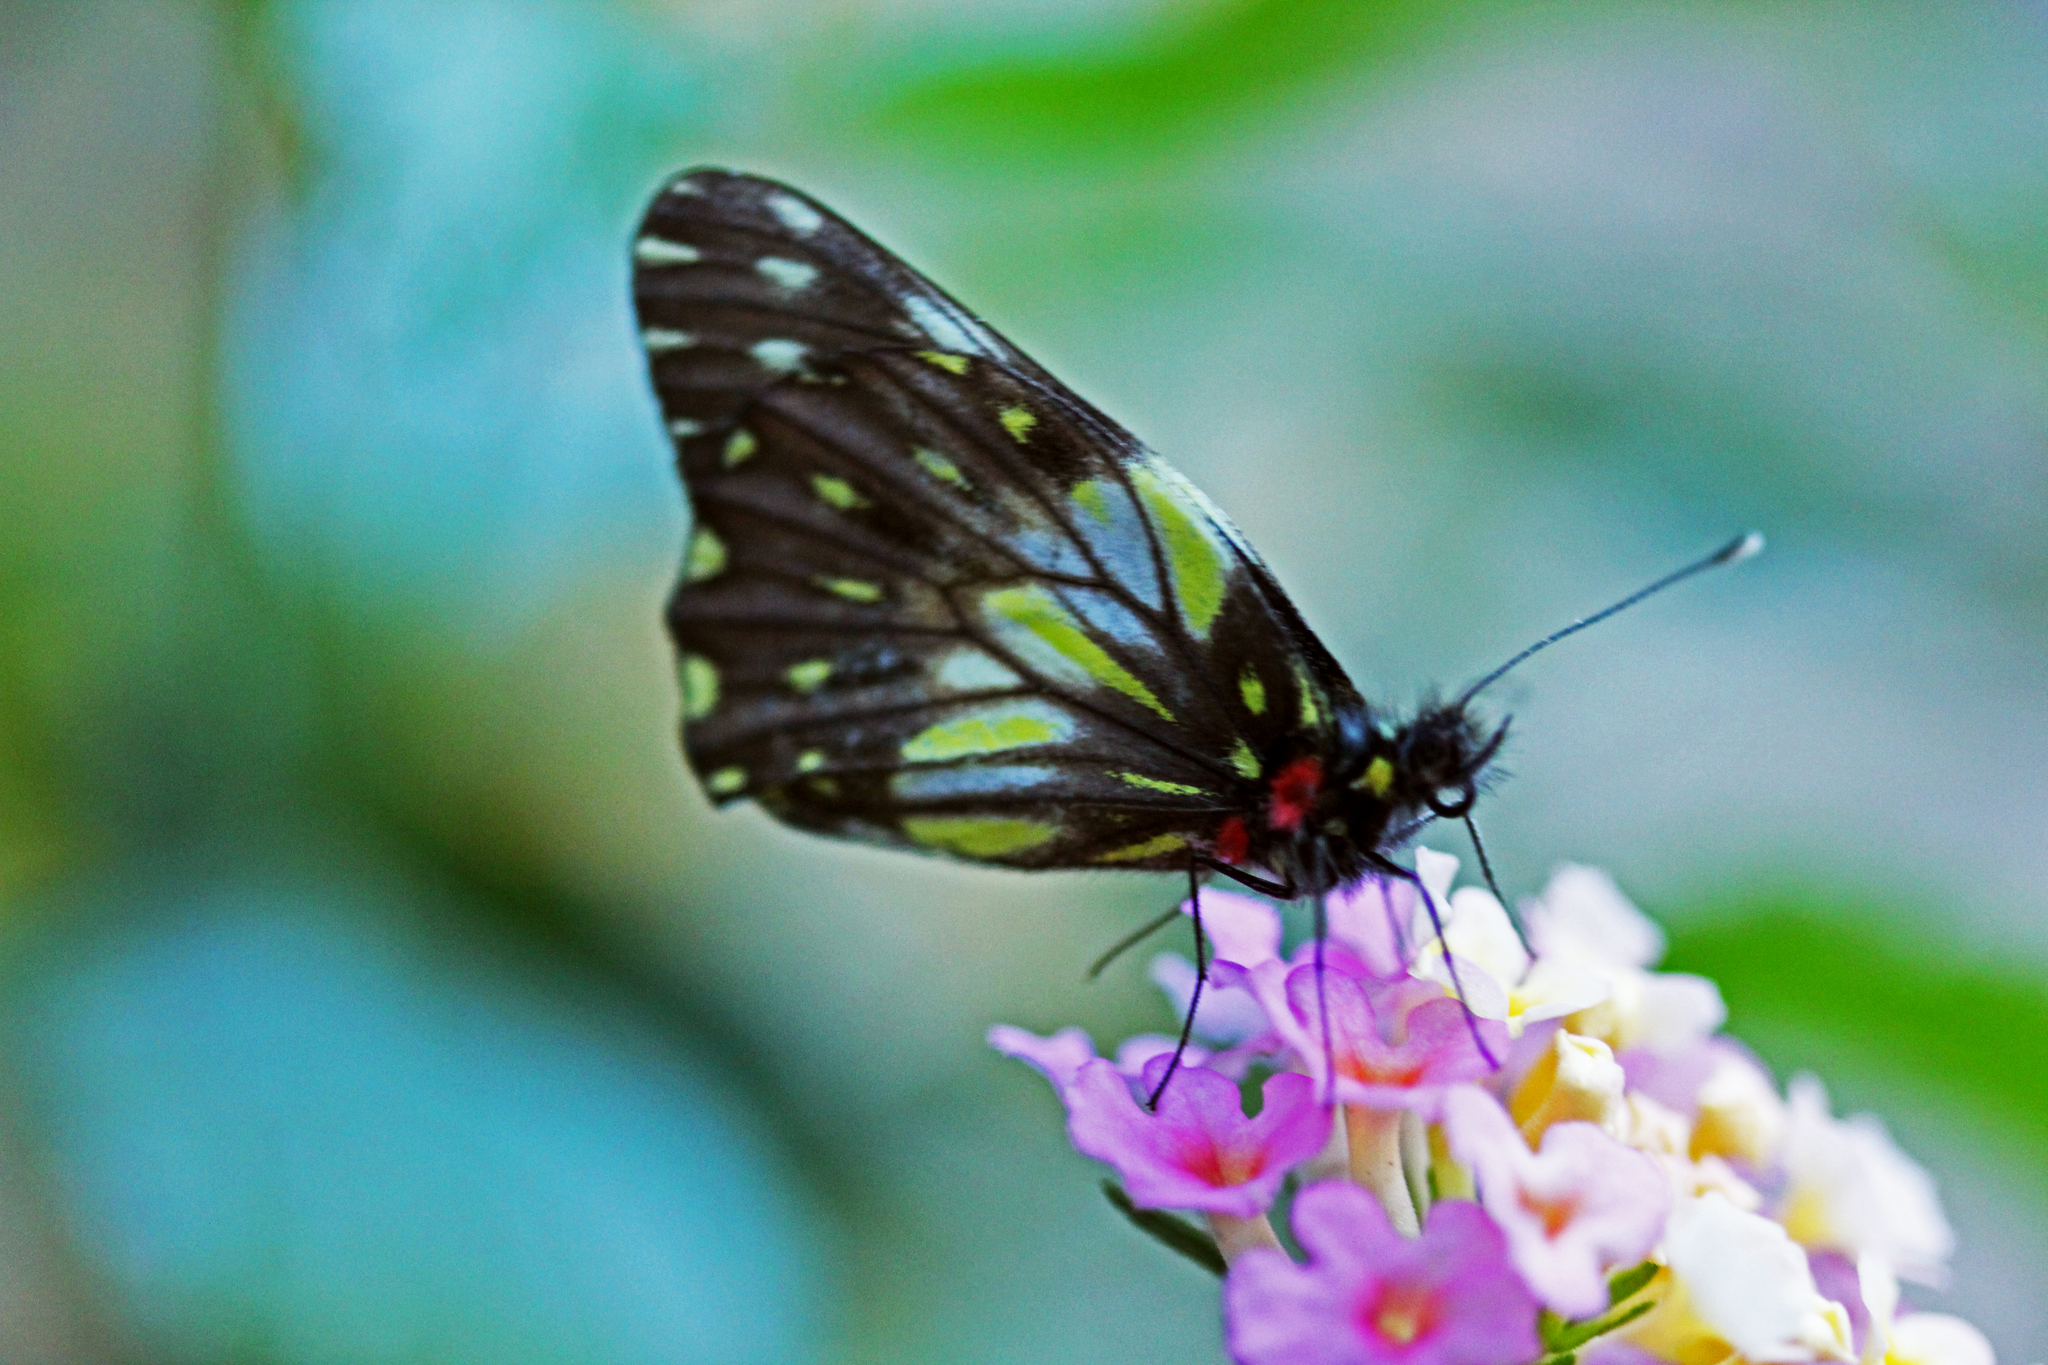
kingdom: Animalia
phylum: Arthropoda
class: Insecta
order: Lepidoptera
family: Pieridae
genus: Archonias
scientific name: Archonias nimbice
